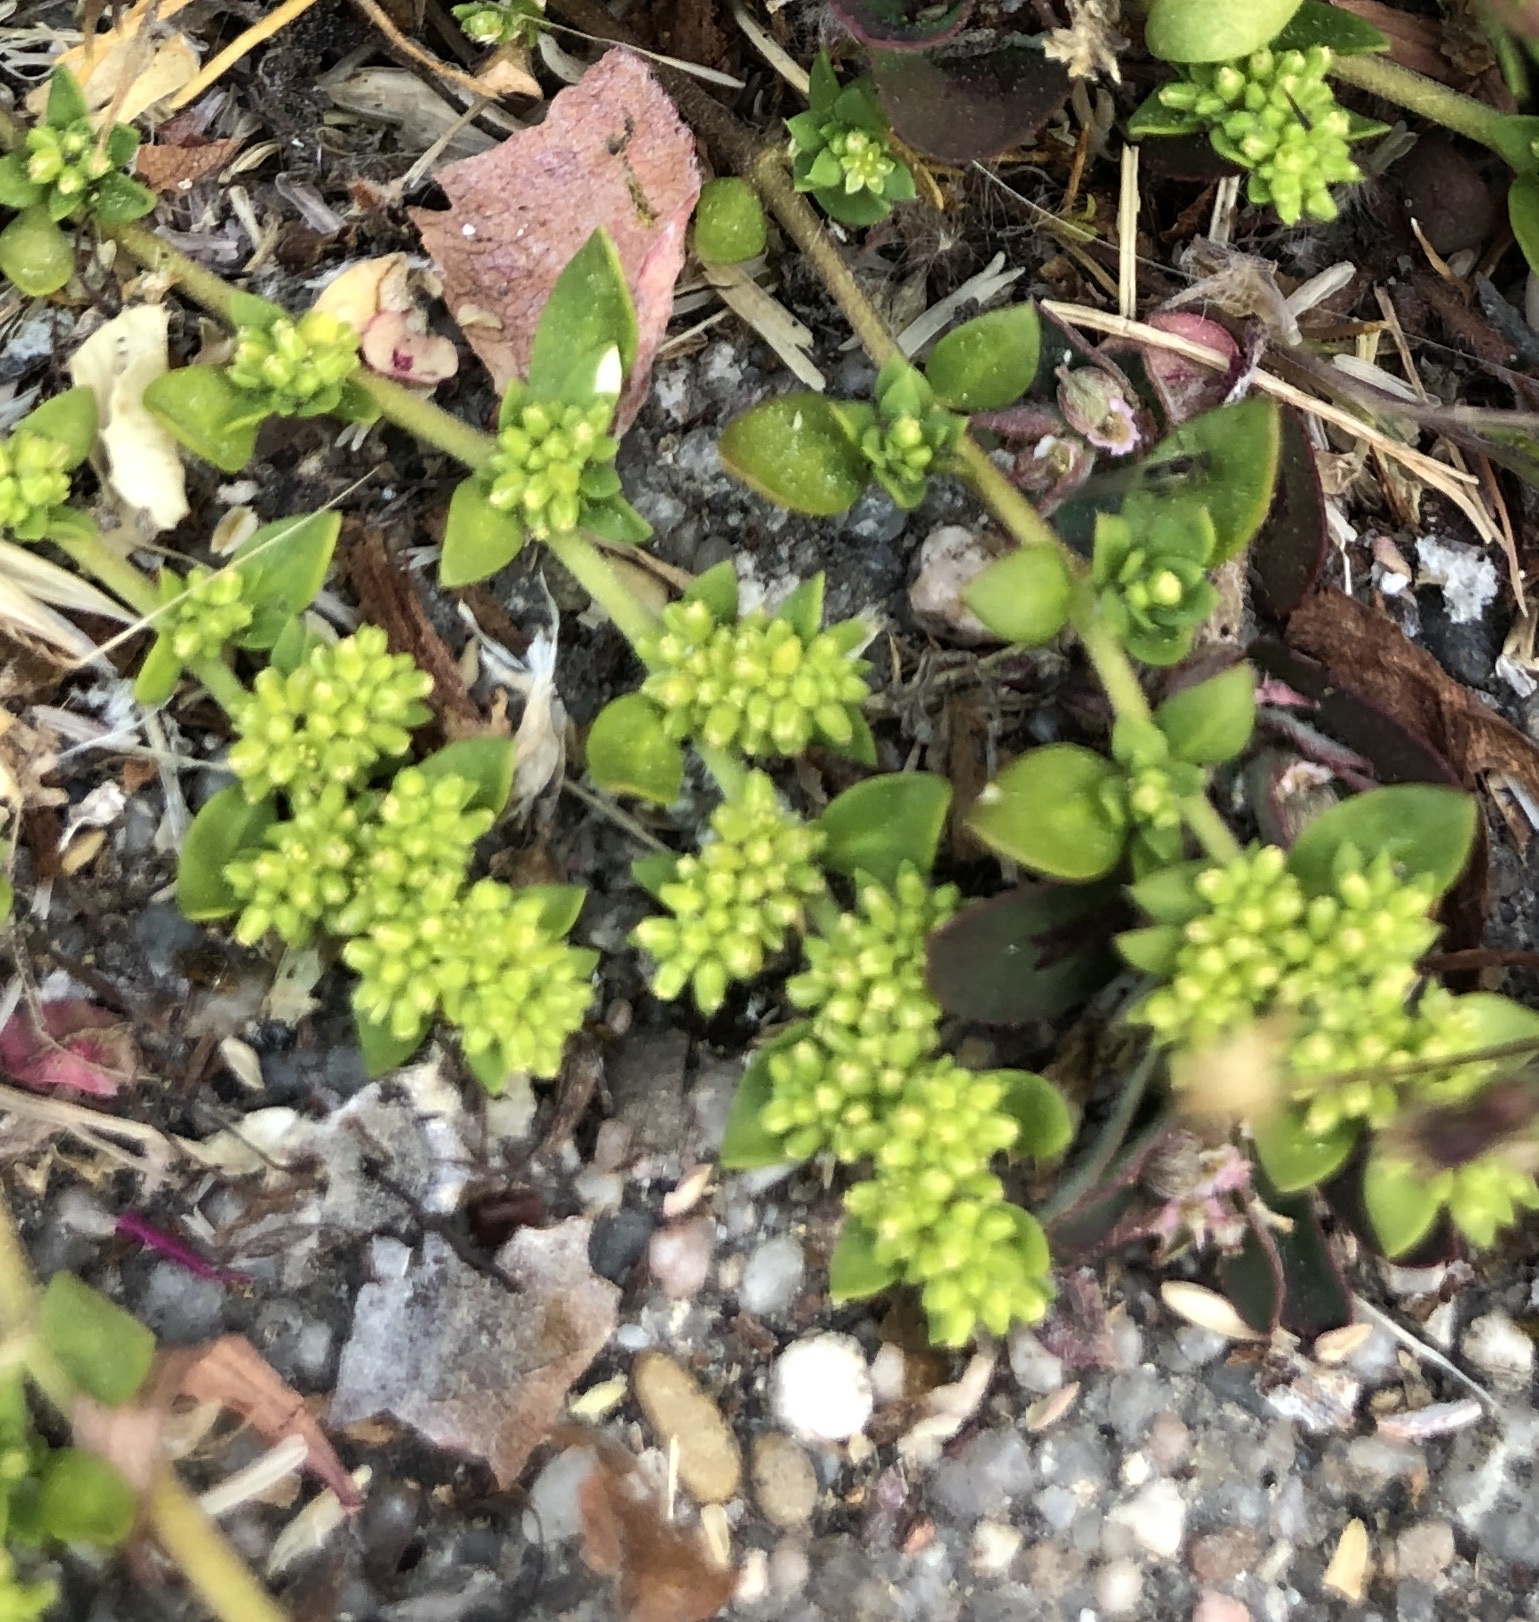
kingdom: Plantae
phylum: Tracheophyta
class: Magnoliopsida
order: Caryophyllales
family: Caryophyllaceae
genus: Herniaria
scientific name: Herniaria glabra
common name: Smooth rupturewort
